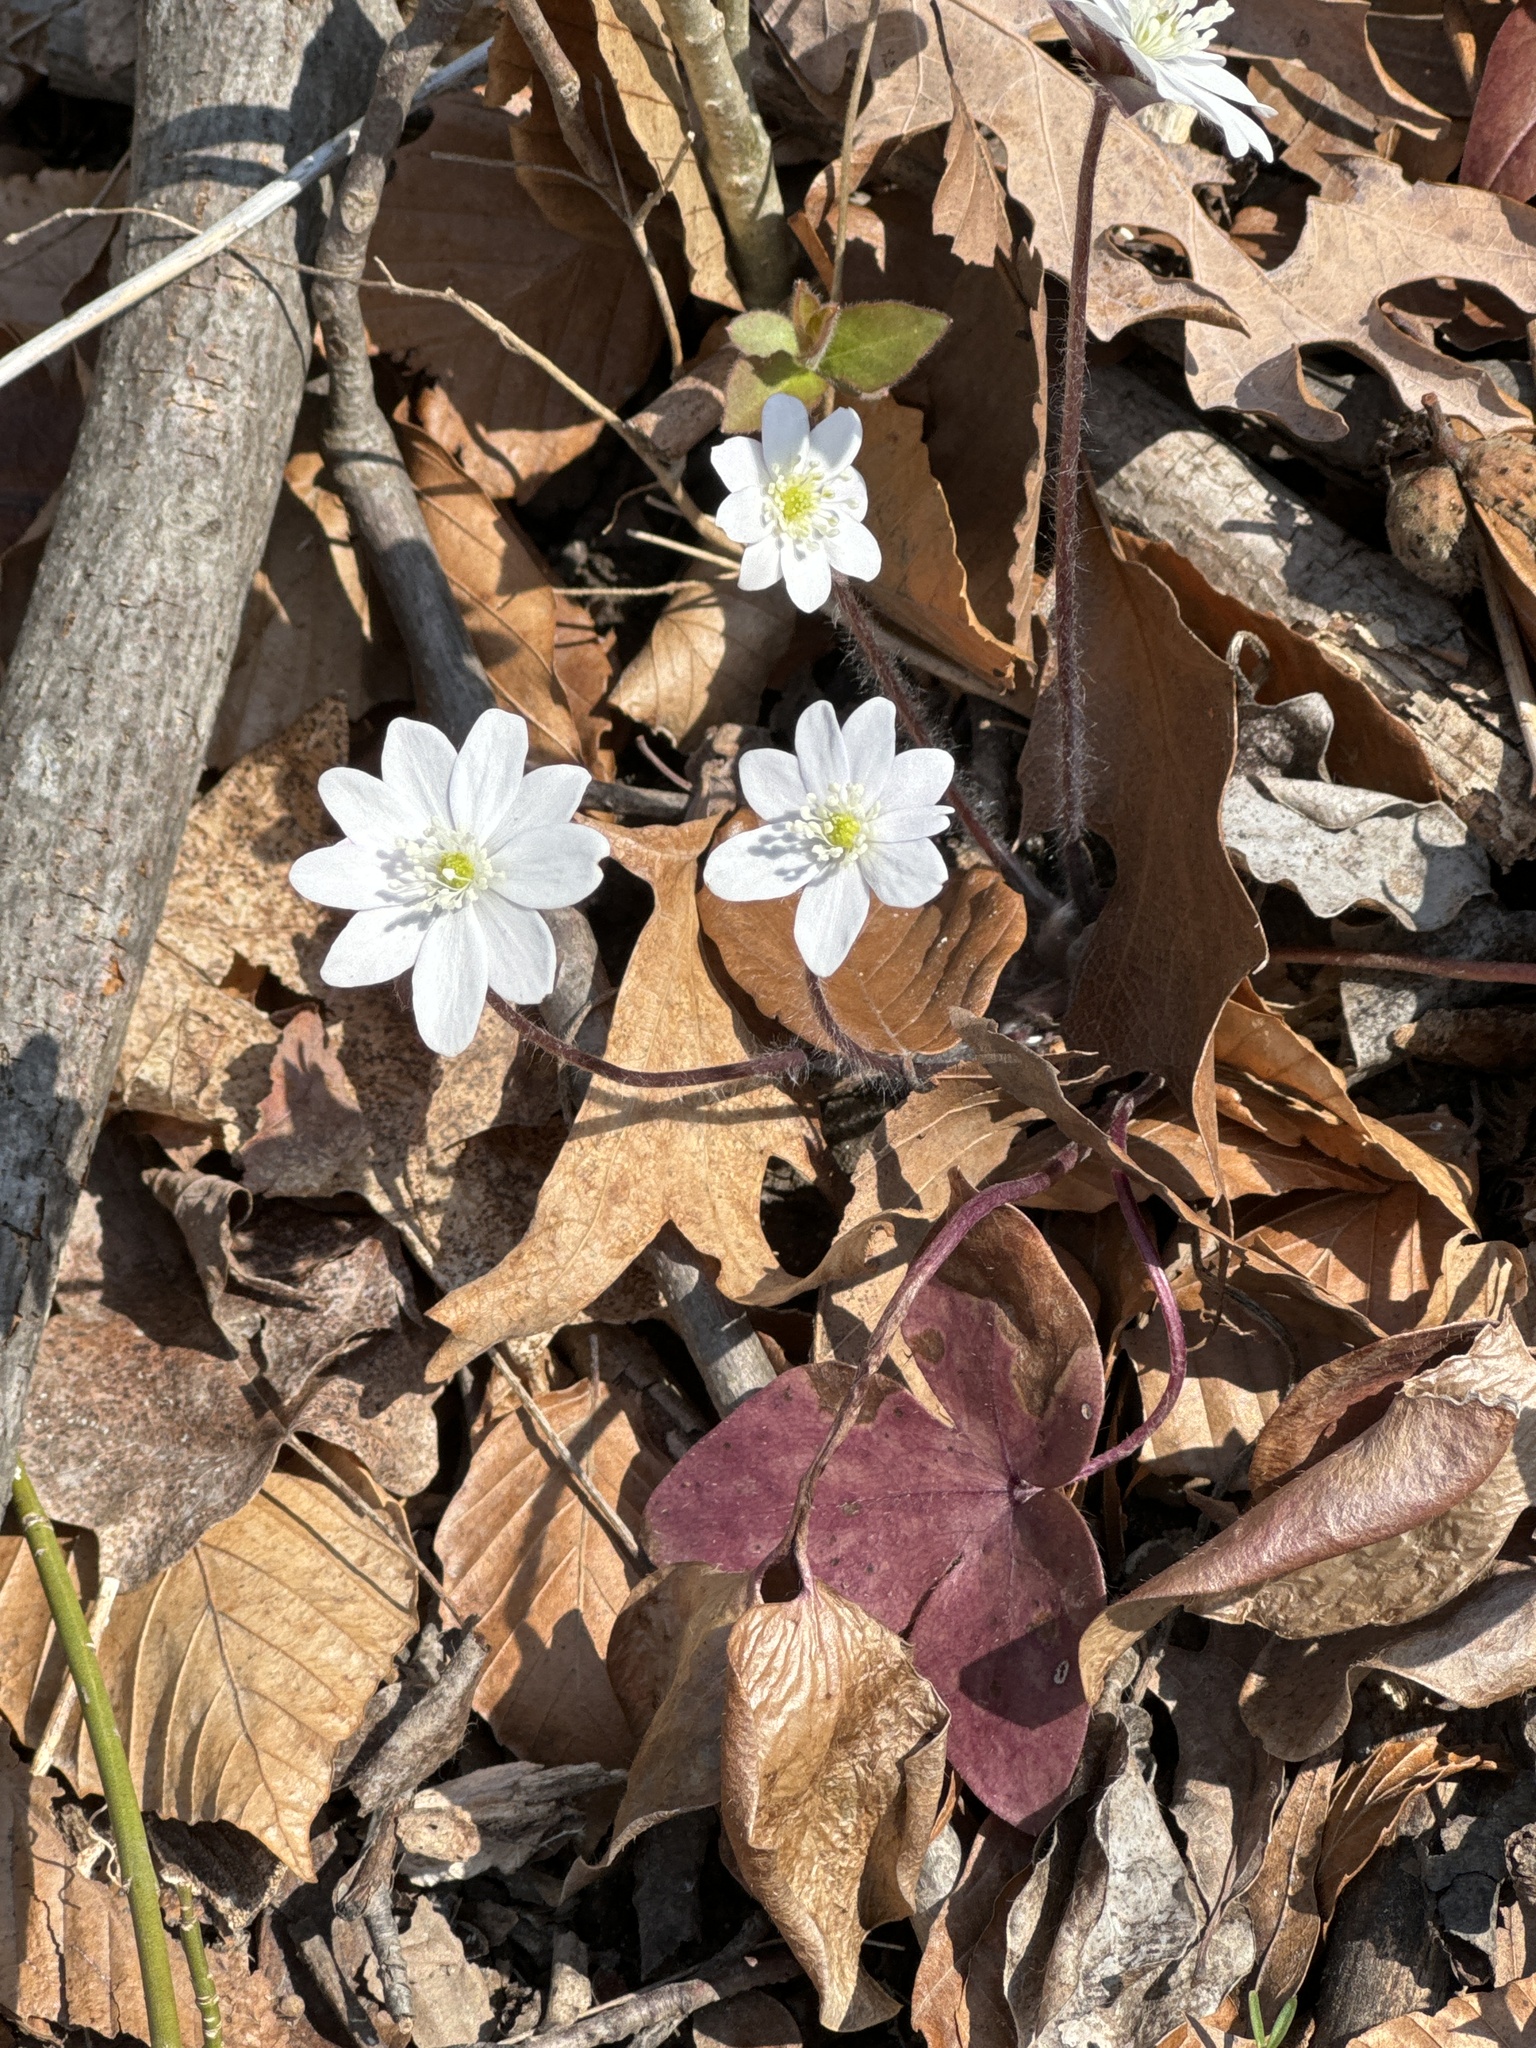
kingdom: Plantae
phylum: Tracheophyta
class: Magnoliopsida
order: Ranunculales
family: Ranunculaceae
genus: Hepatica
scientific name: Hepatica acutiloba
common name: Sharp-lobed hepatica
